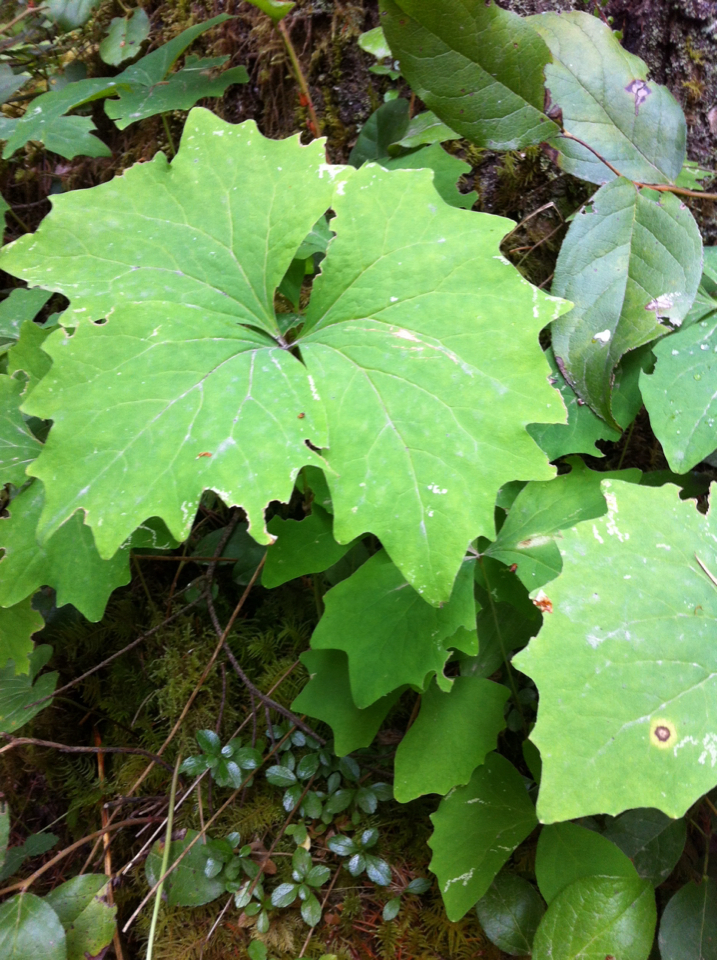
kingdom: Plantae
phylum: Tracheophyta
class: Magnoliopsida
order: Ranunculales
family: Berberidaceae
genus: Achlys
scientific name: Achlys triphylla
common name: Vanilla-leaf
